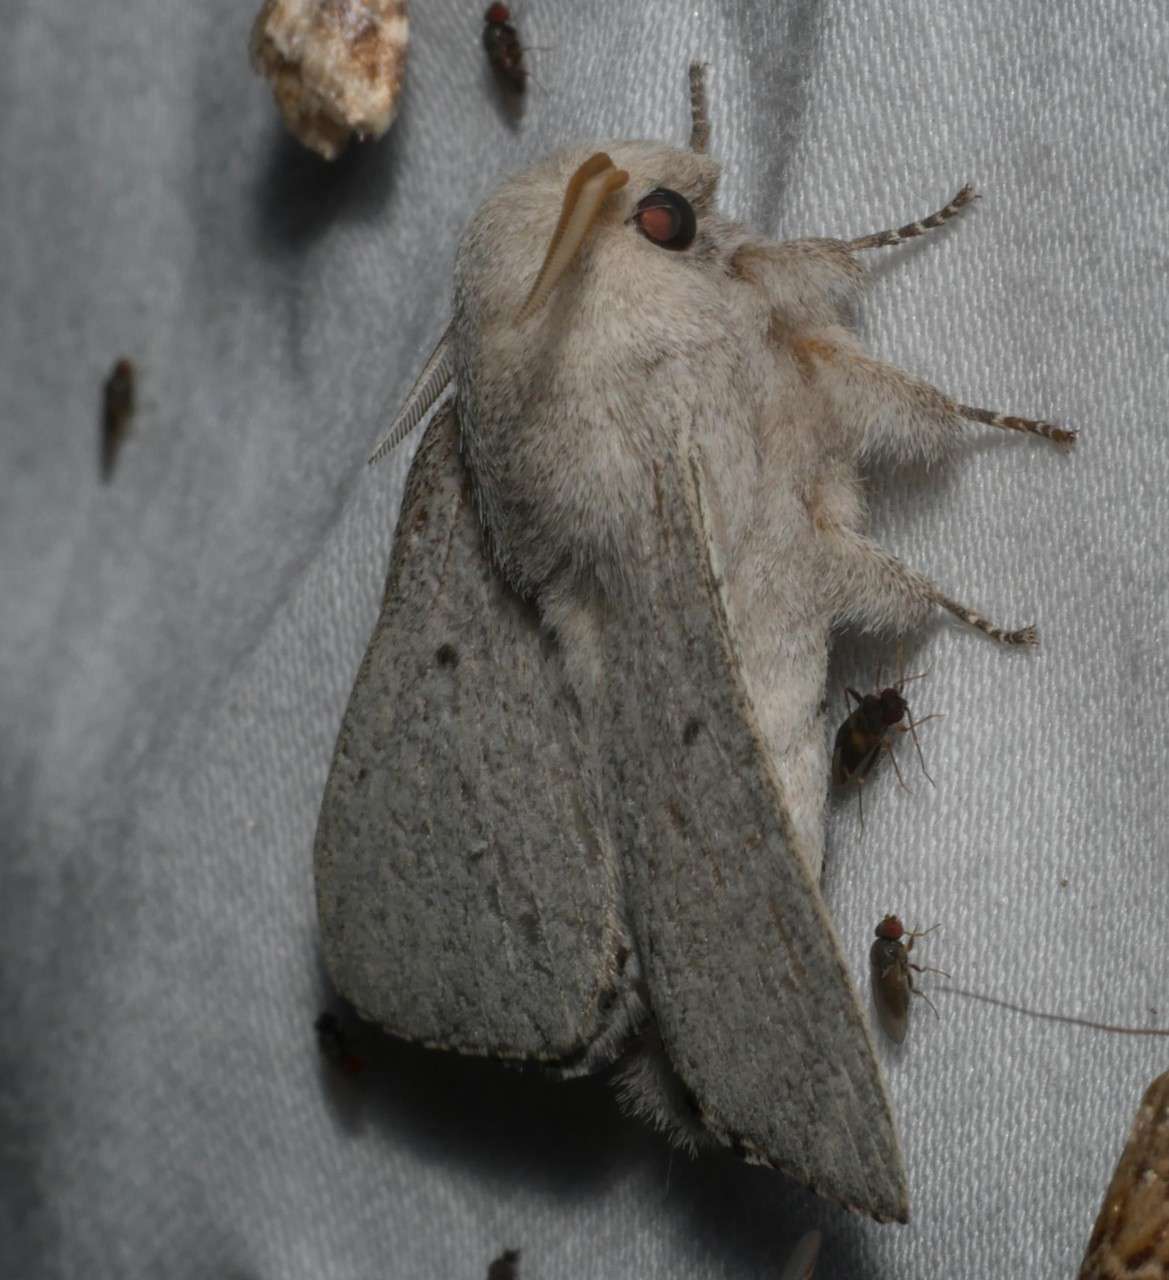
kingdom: Animalia
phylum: Arthropoda
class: Insecta
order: Lepidoptera
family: Lasiocampidae
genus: Symphyta
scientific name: Symphyta psaropis
